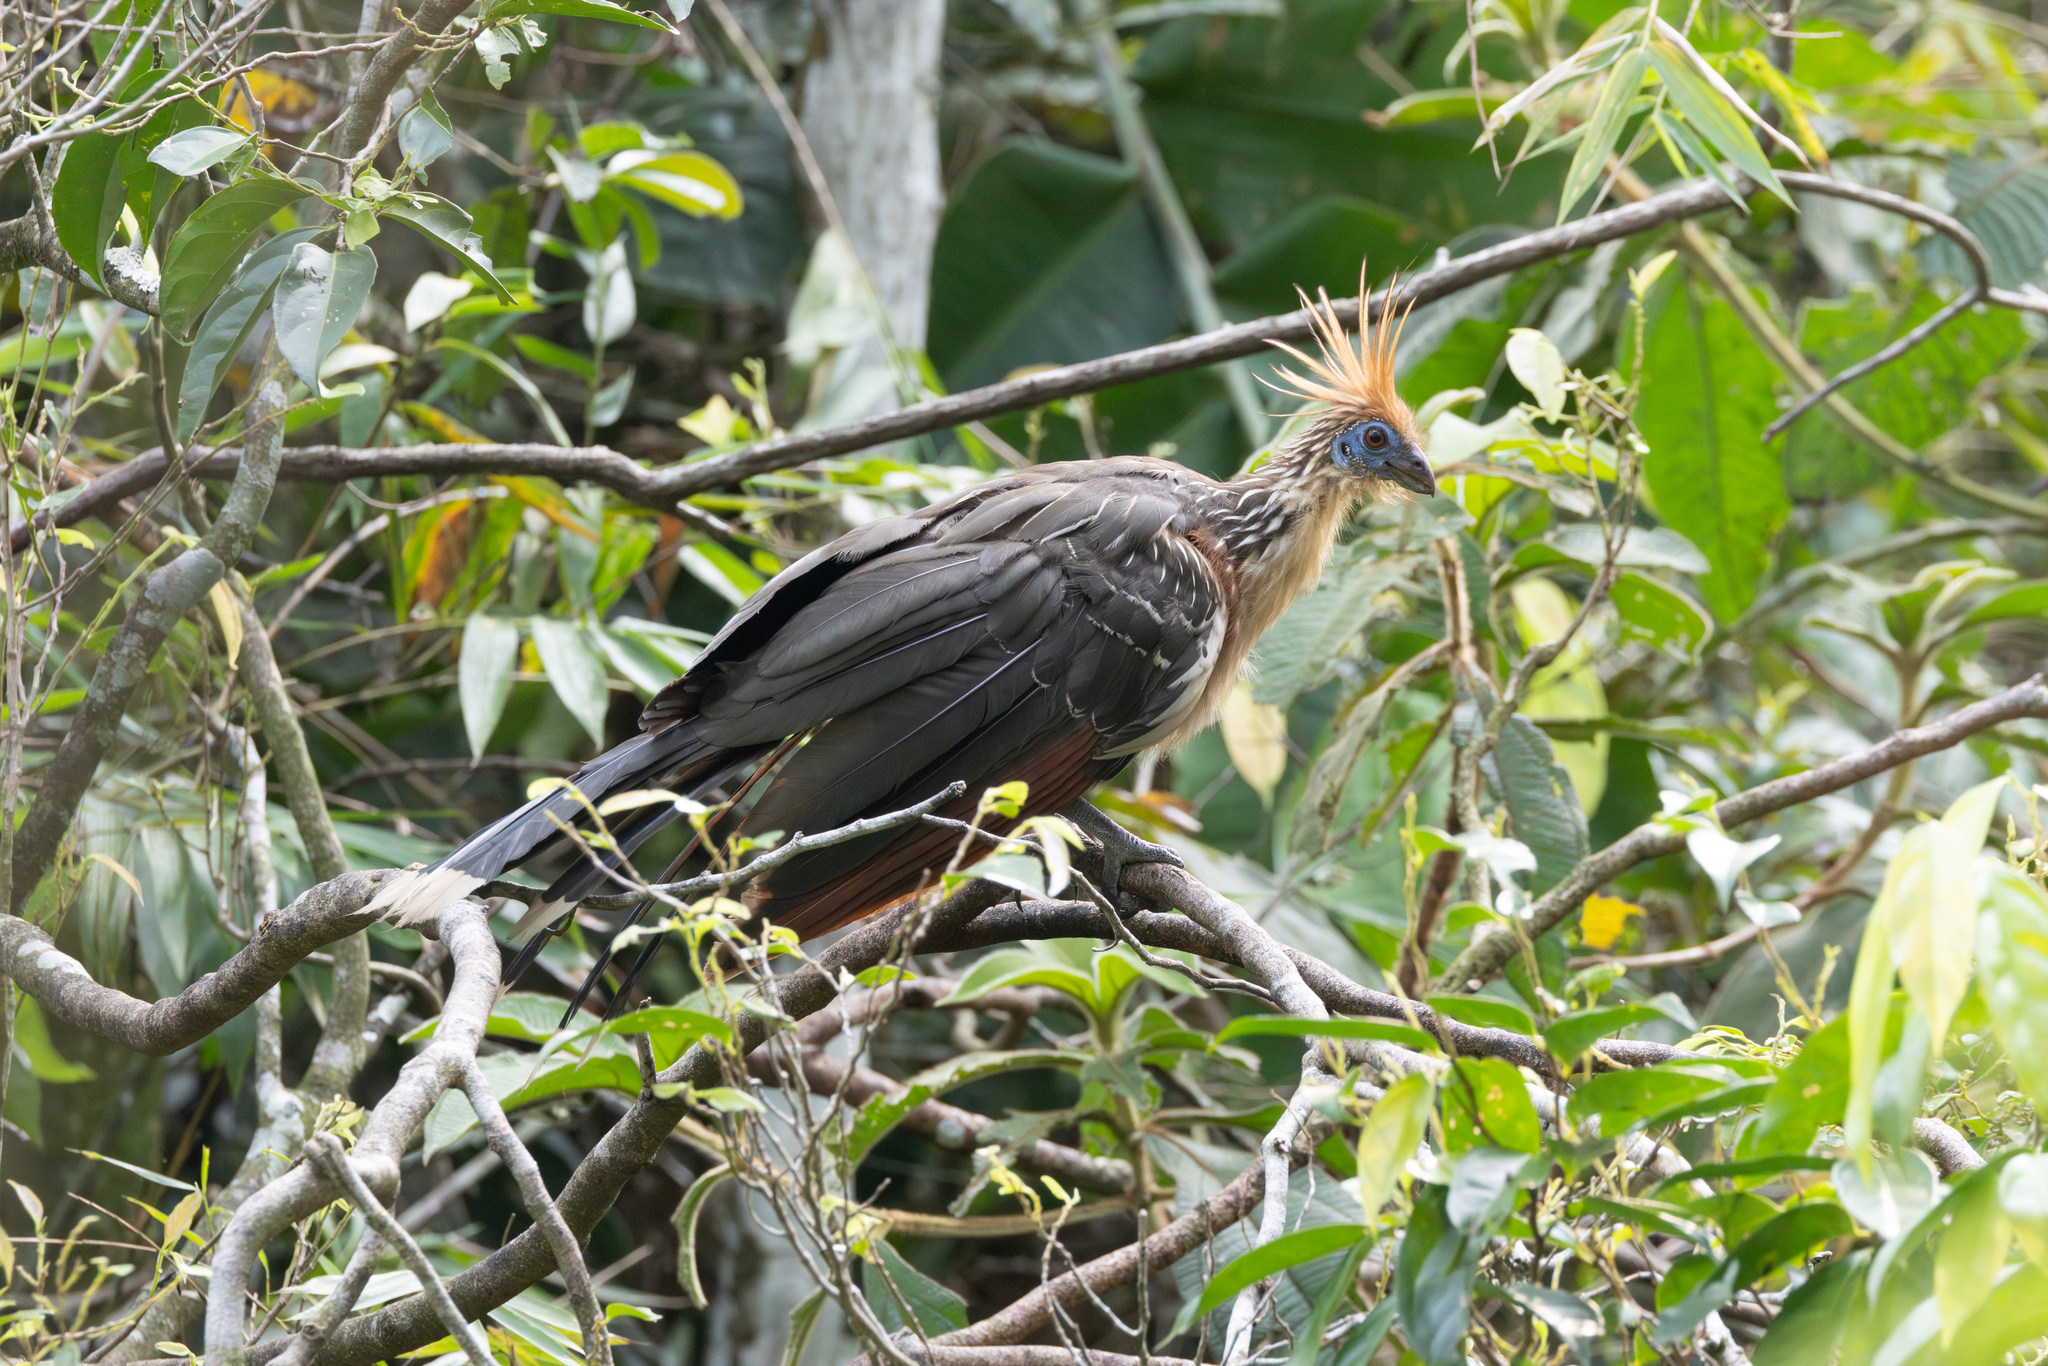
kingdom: Animalia
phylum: Chordata
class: Aves
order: Opisthocomiformes
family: Opisthocomidae
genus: Opisthocomus
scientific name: Opisthocomus hoazin
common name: Hoatzin
